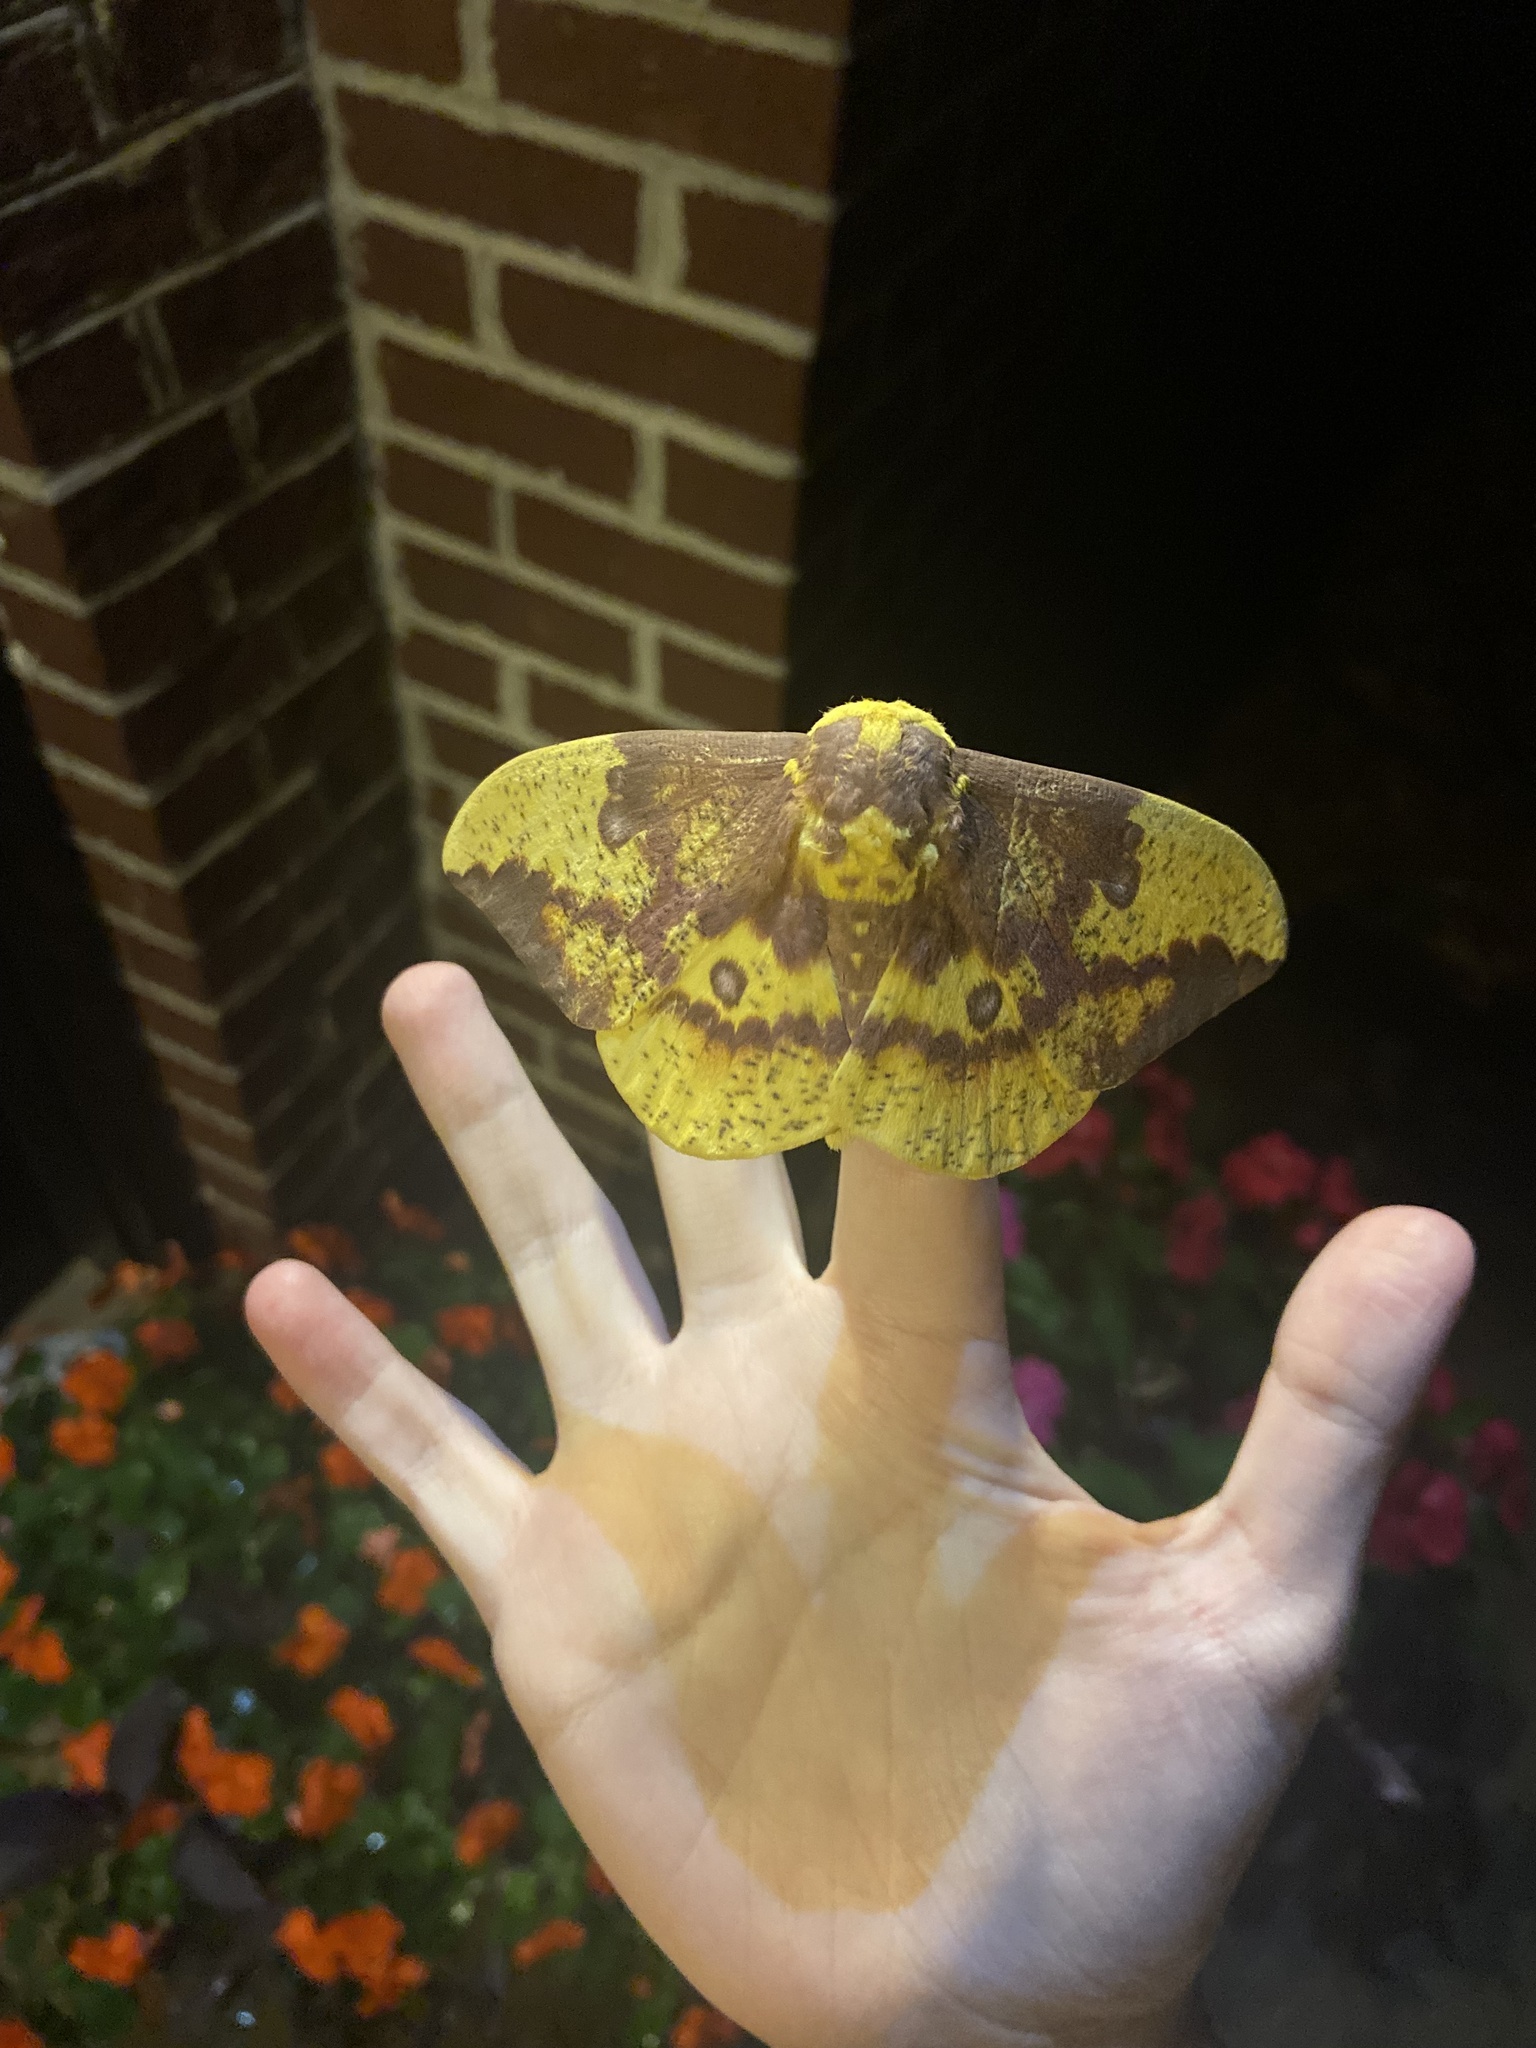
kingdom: Animalia
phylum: Arthropoda
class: Insecta
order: Lepidoptera
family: Saturniidae
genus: Eacles
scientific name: Eacles imperialis
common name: Imperial moth
